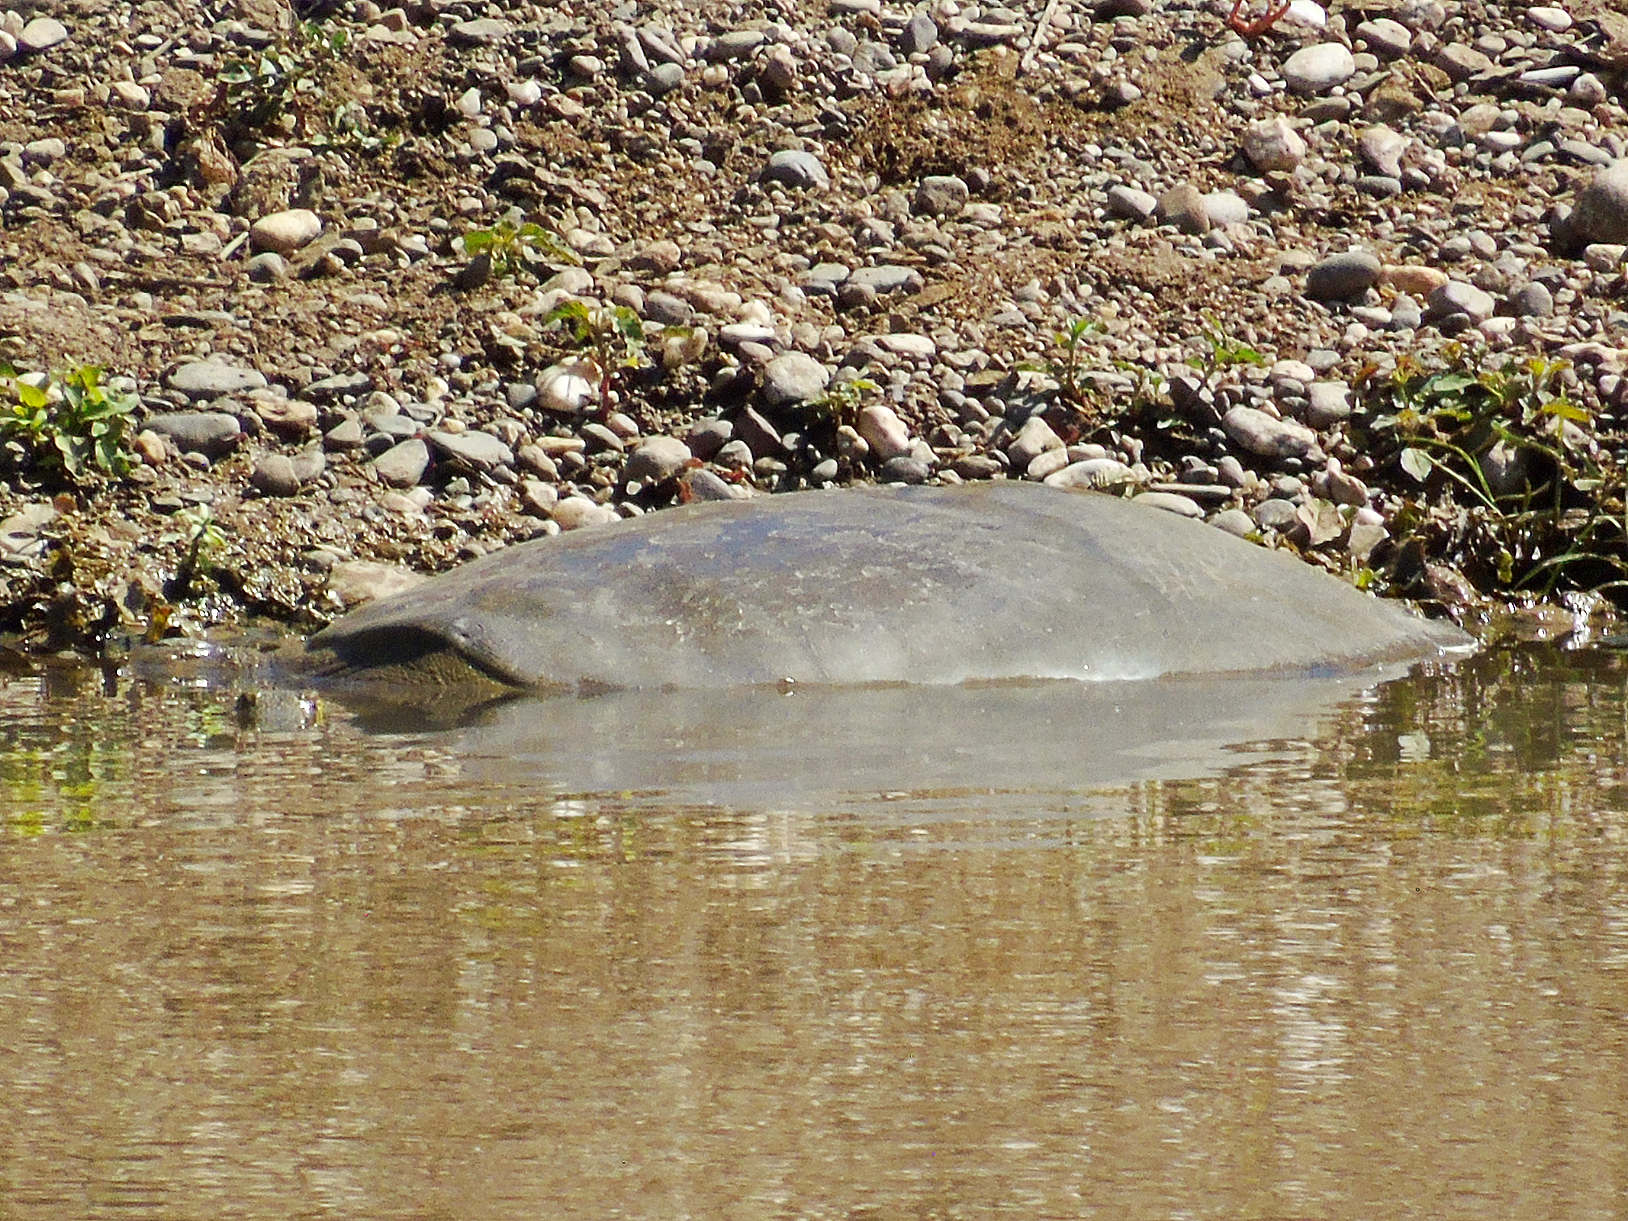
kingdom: Animalia
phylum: Chordata
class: Testudines
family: Trionychidae
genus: Rafetus
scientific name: Rafetus euphraticus
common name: Euphrates softshell
